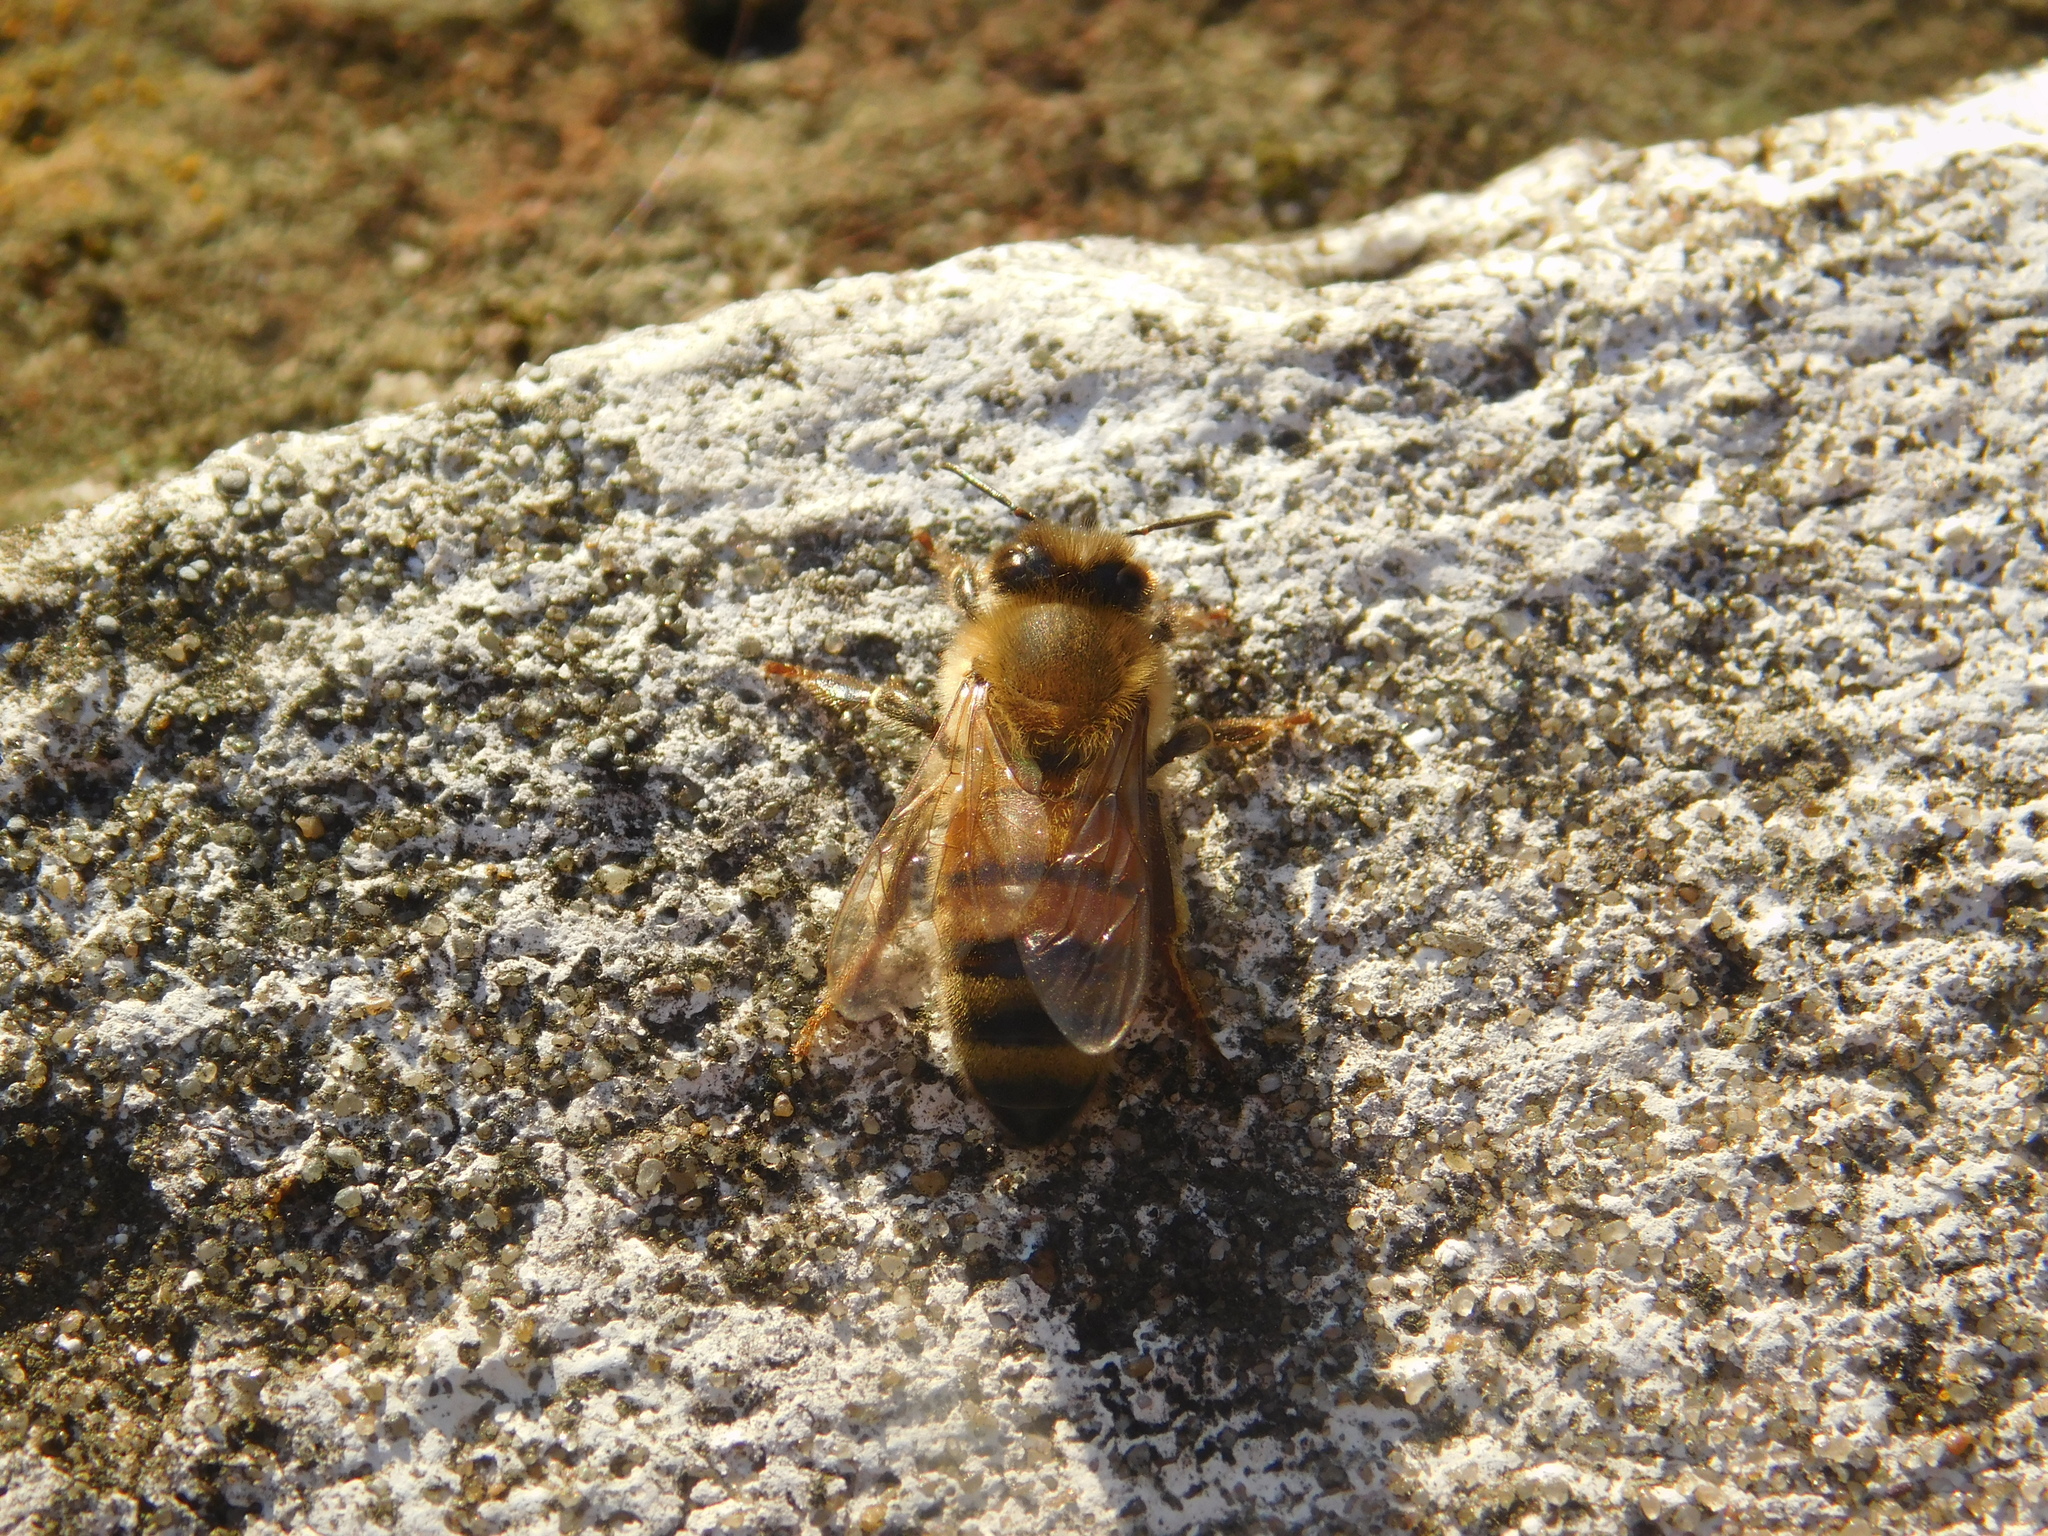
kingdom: Animalia
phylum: Arthropoda
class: Insecta
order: Hymenoptera
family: Apidae
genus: Apis
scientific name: Apis mellifera
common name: Honey bee
